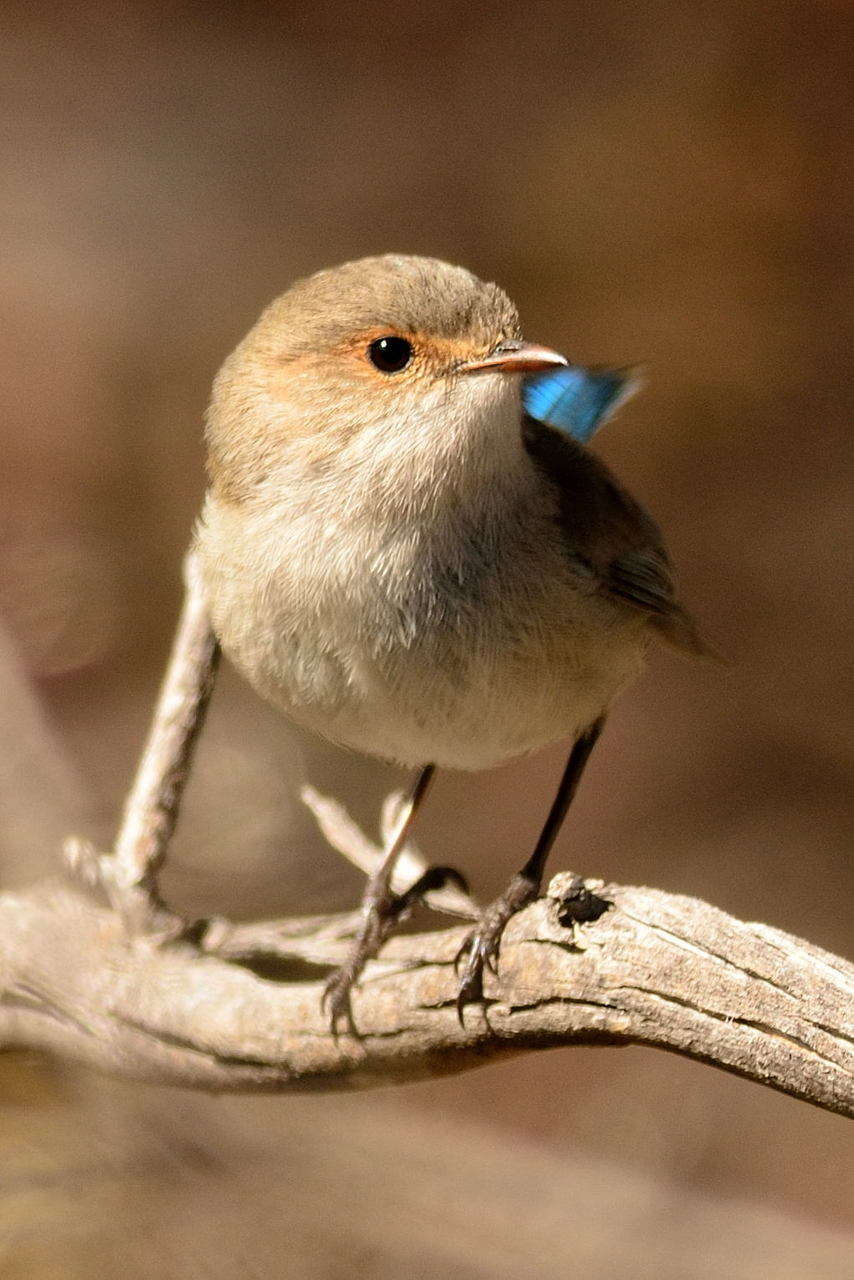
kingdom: Animalia
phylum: Chordata
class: Aves
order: Passeriformes
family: Maluridae
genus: Malurus
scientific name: Malurus splendens
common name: Splendid fairywren
